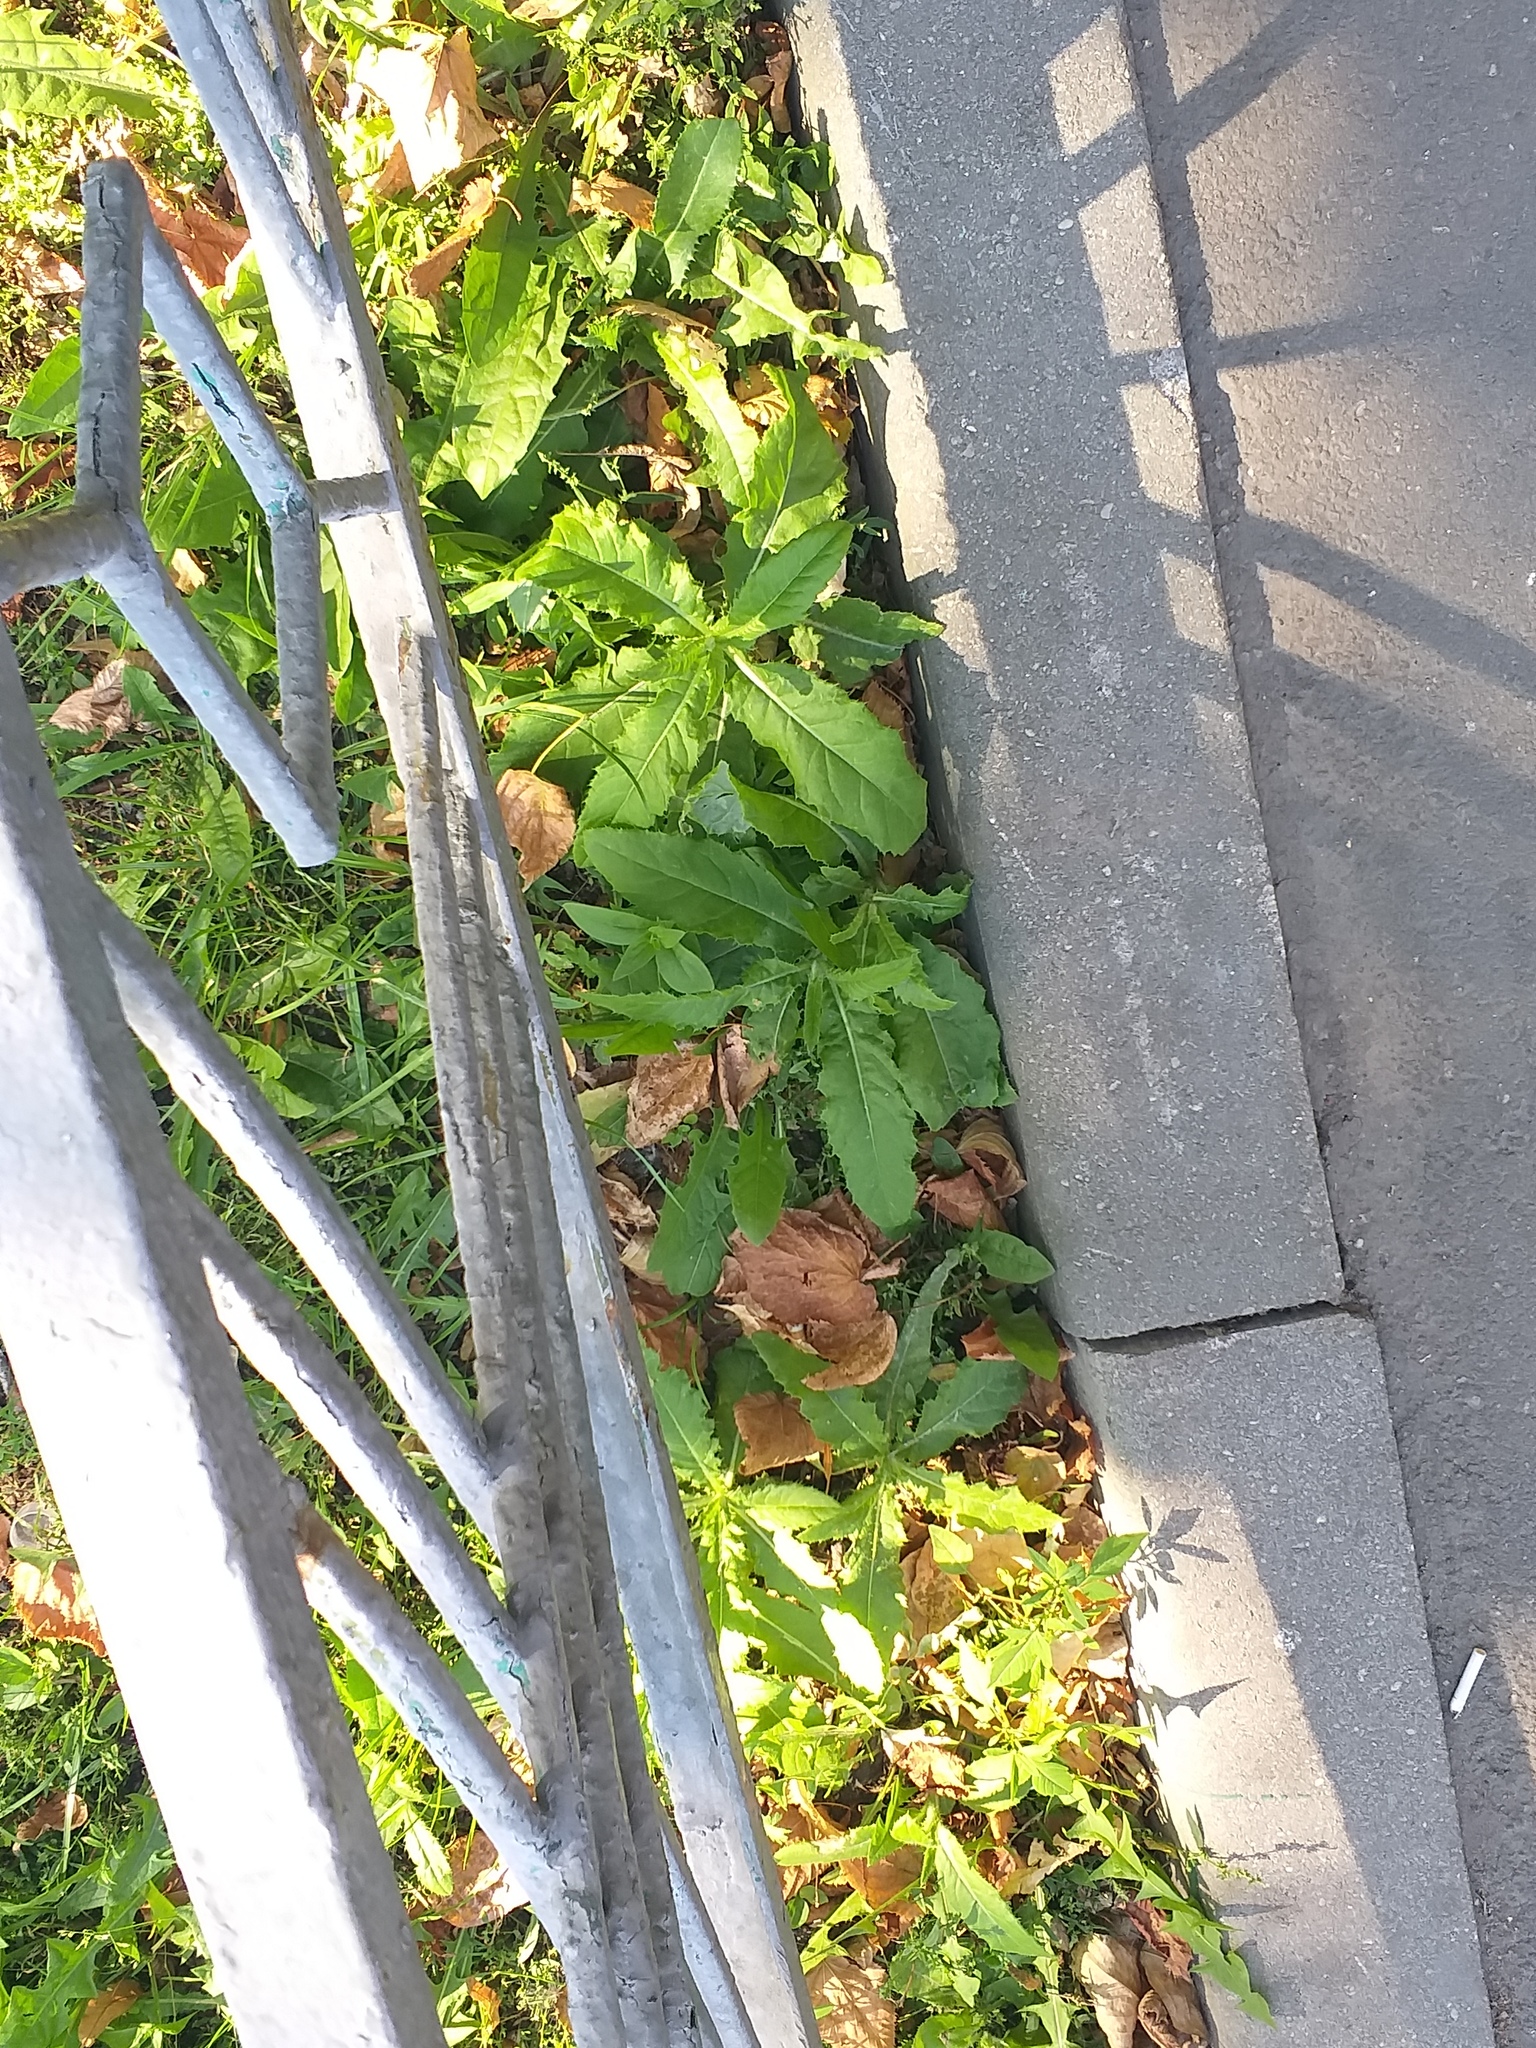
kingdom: Plantae
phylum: Tracheophyta
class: Magnoliopsida
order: Asterales
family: Asteraceae
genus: Cirsium
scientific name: Cirsium arvense
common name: Creeping thistle
